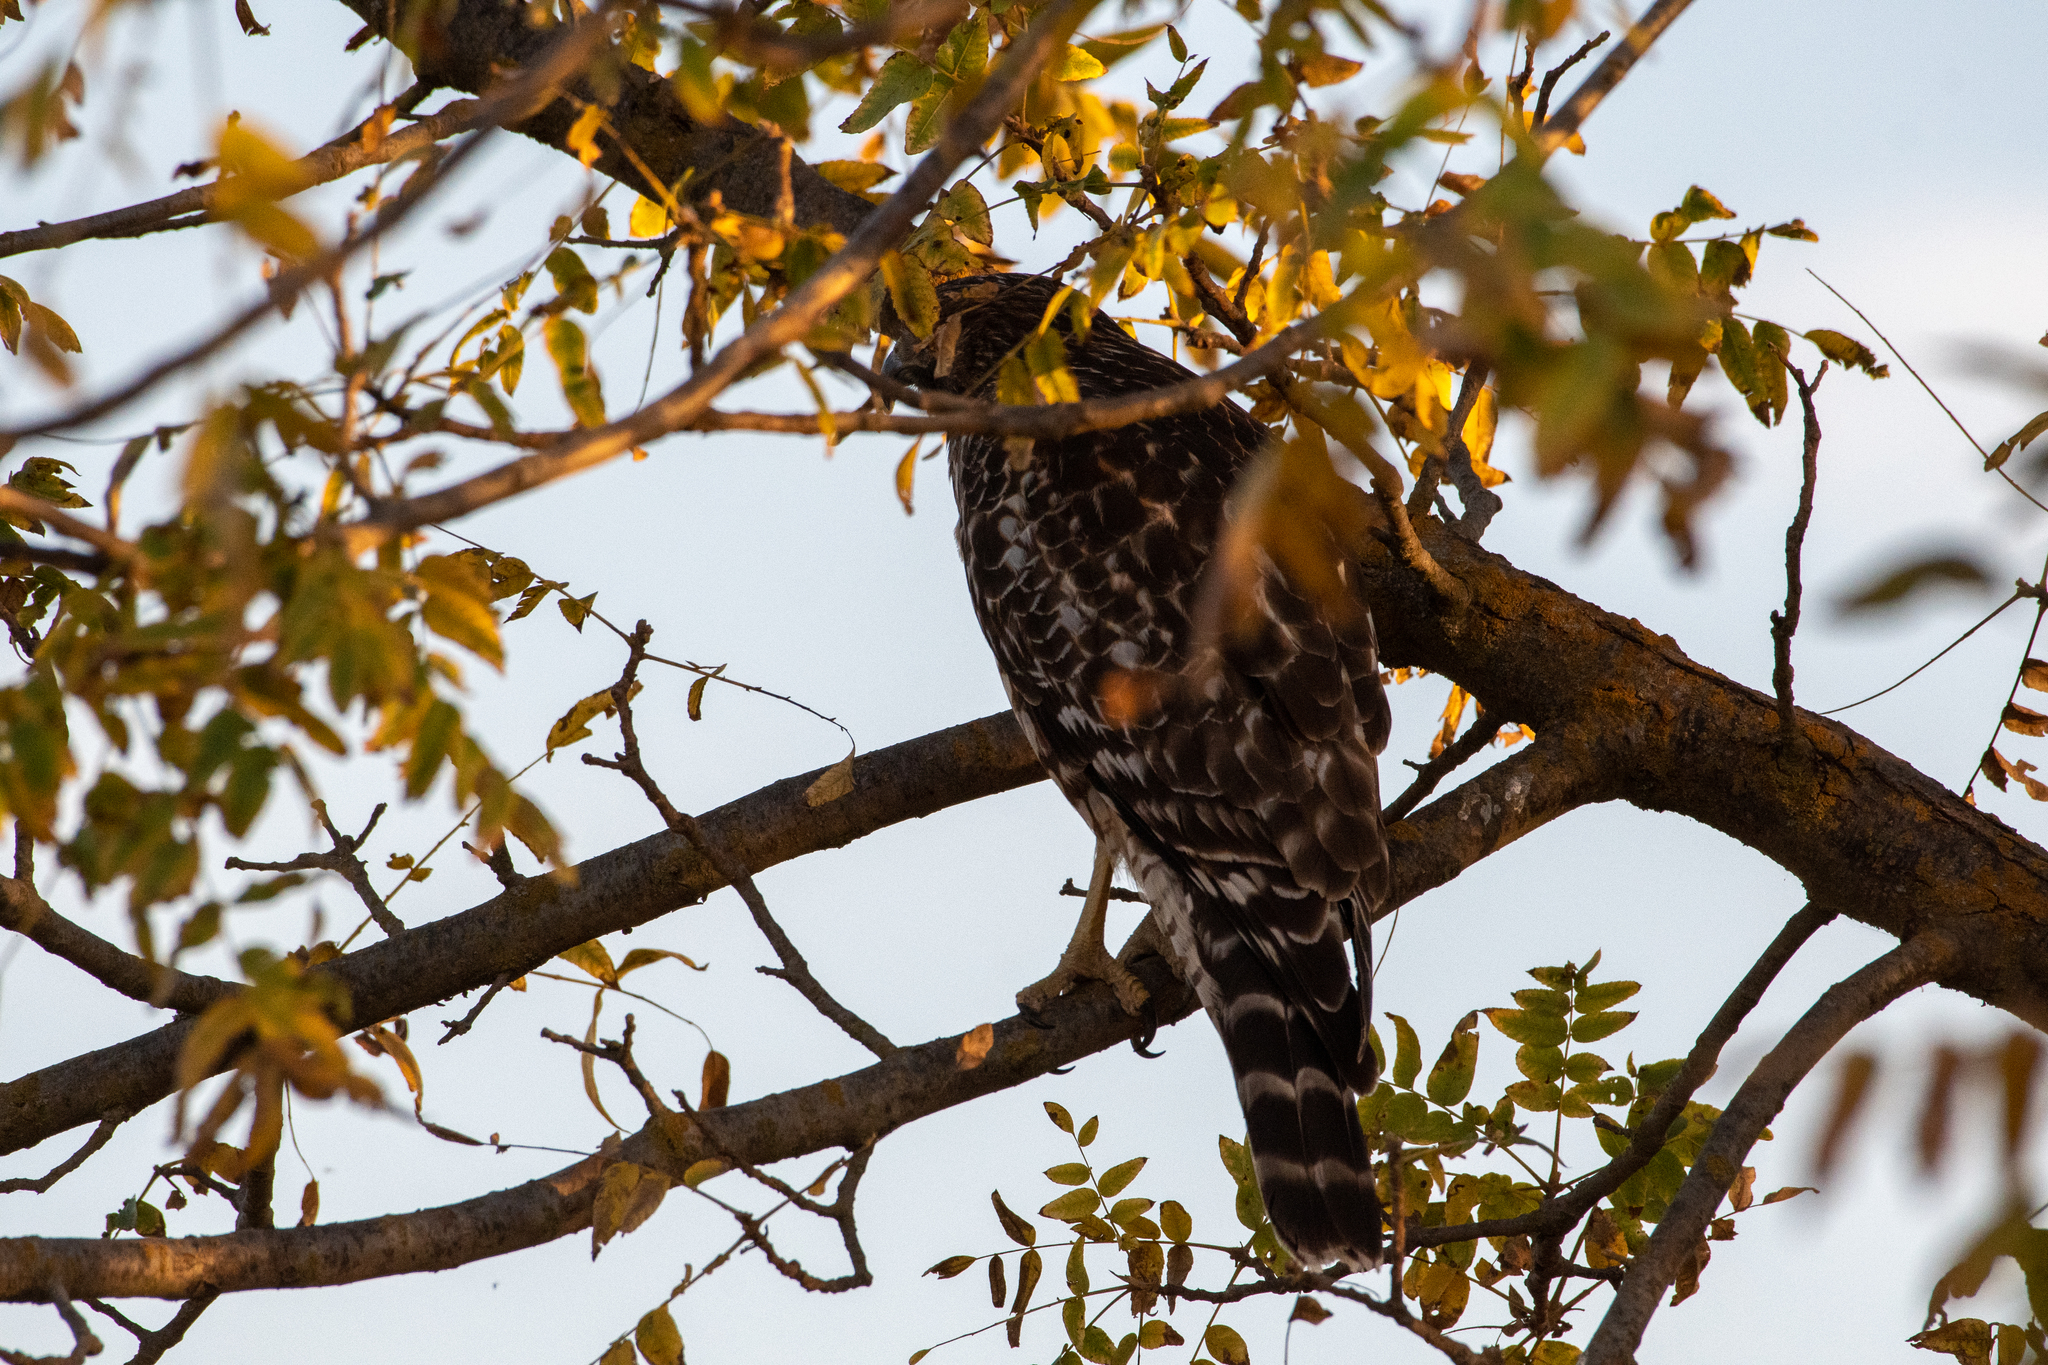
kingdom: Animalia
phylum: Chordata
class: Aves
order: Accipitriformes
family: Accipitridae
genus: Buteo
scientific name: Buteo lineatus
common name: Red-shouldered hawk
